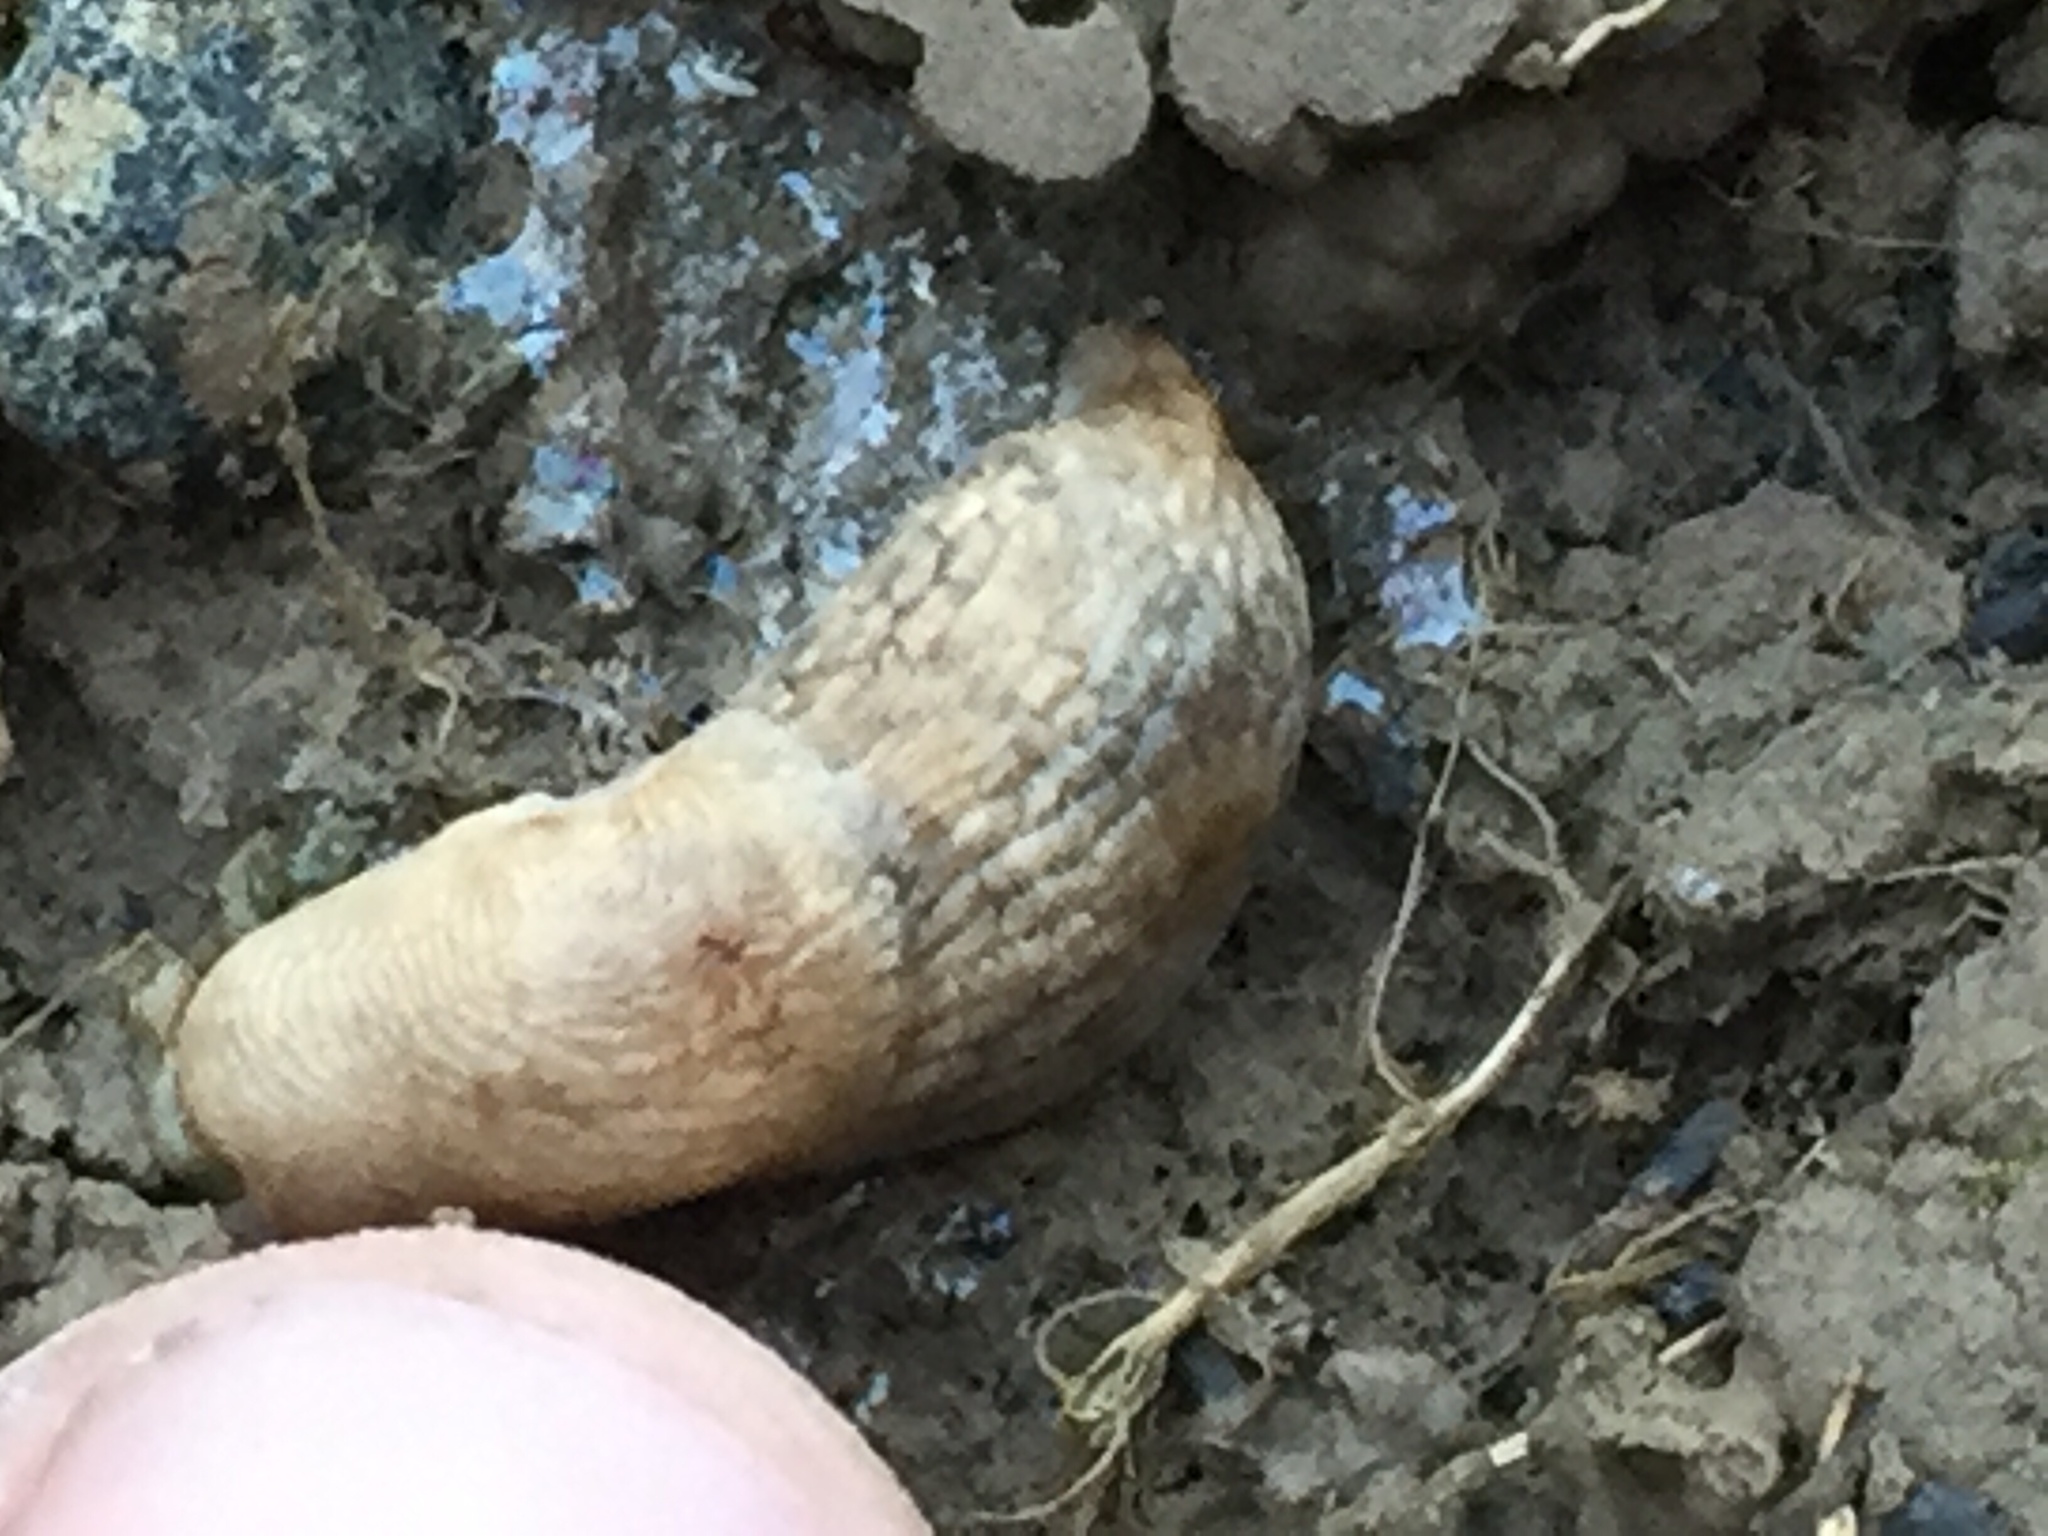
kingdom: Animalia
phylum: Mollusca
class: Gastropoda
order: Stylommatophora
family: Agriolimacidae
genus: Deroceras
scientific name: Deroceras reticulatum
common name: Gray field slug
